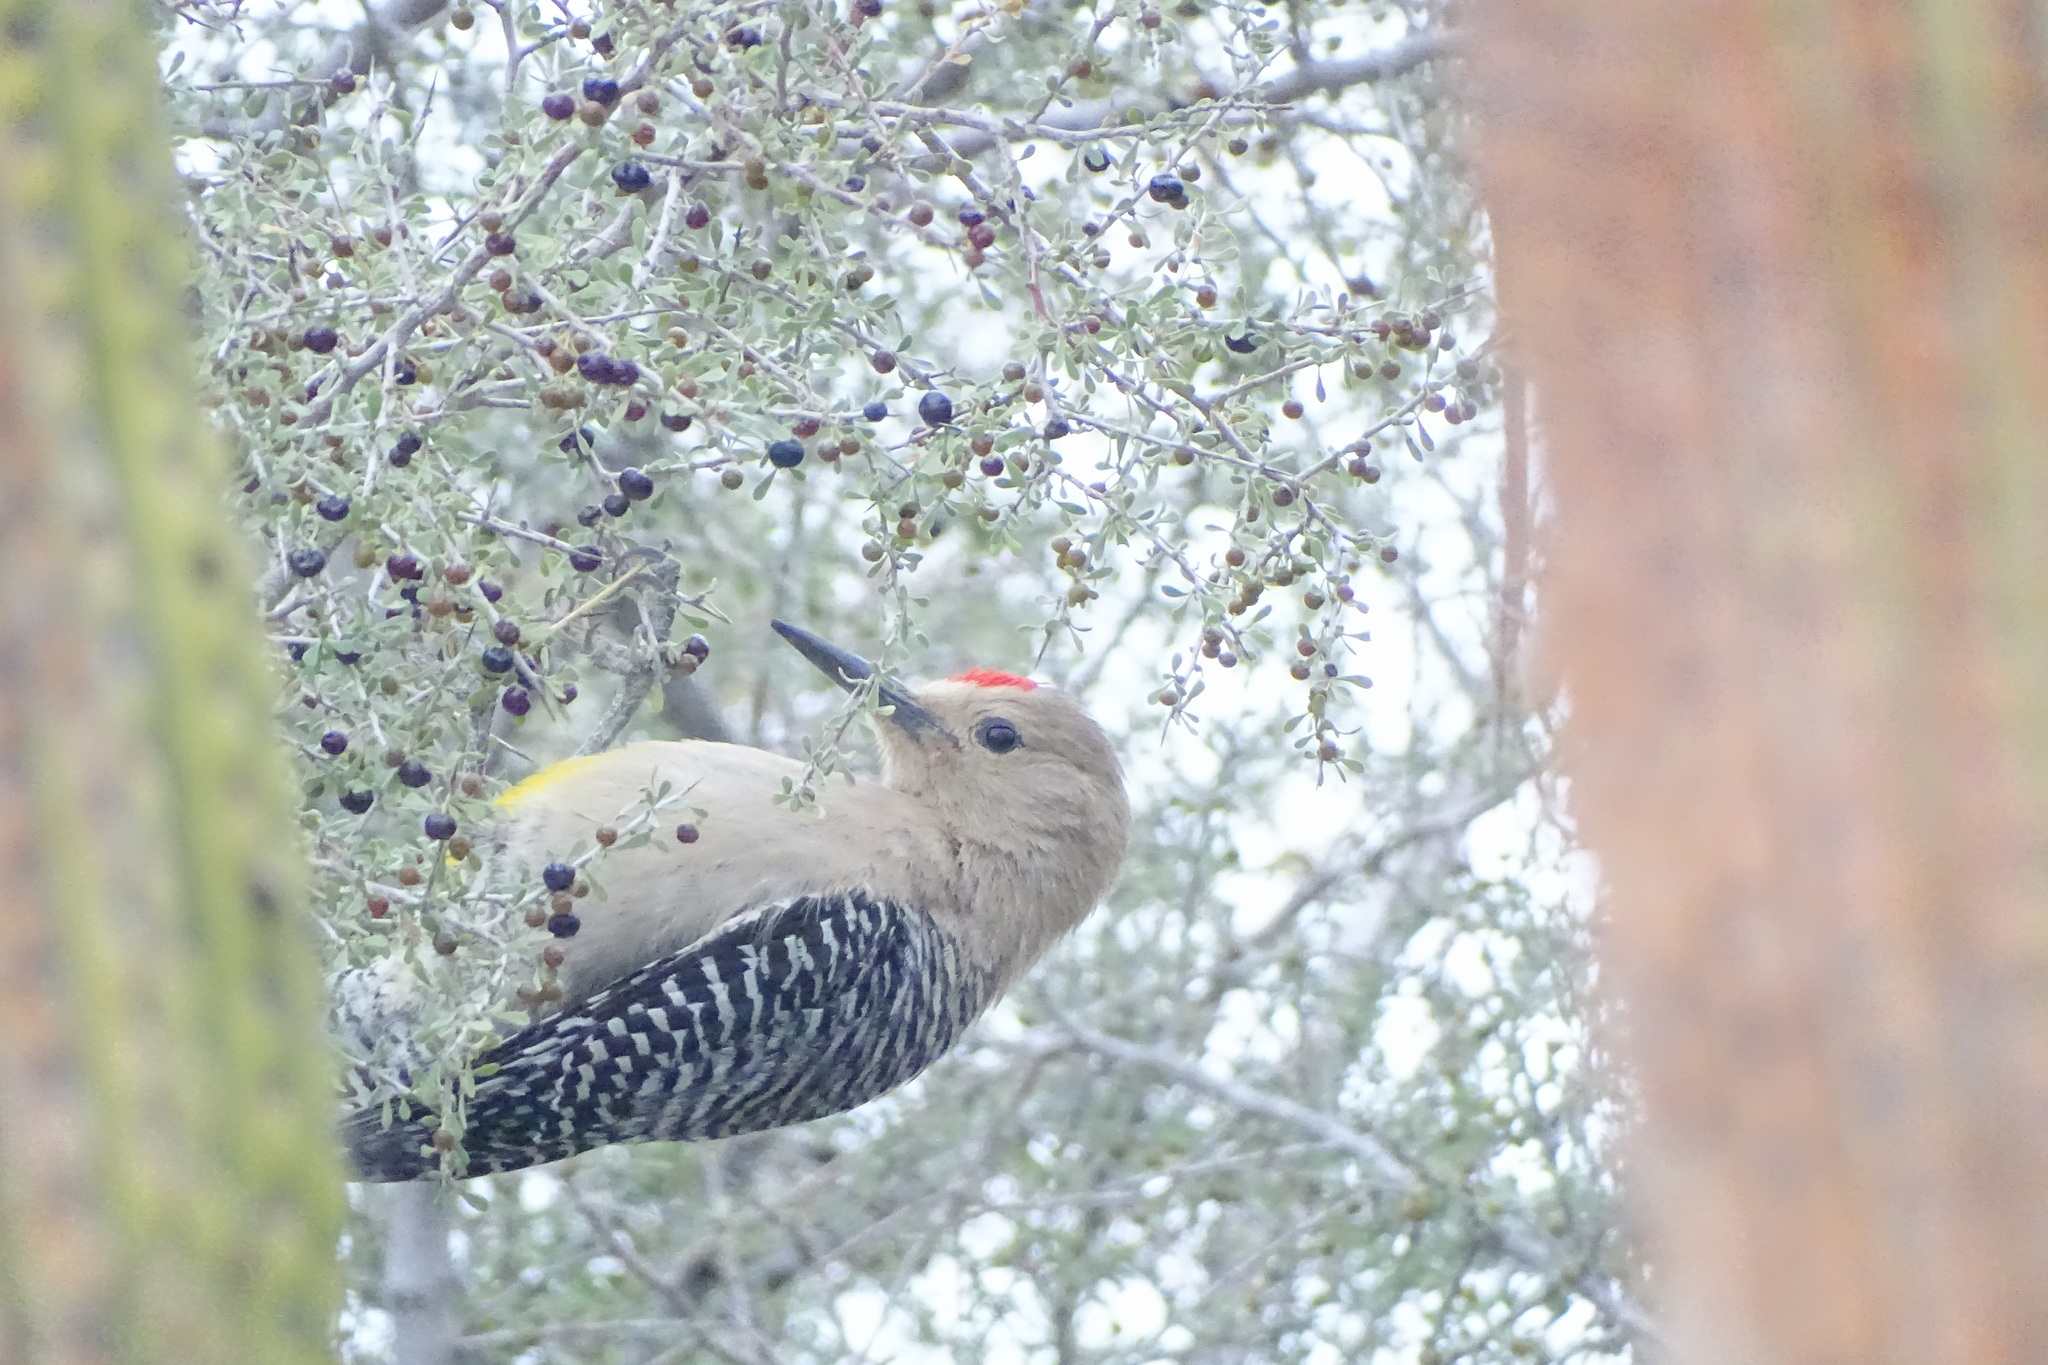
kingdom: Animalia
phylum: Chordata
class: Aves
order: Piciformes
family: Picidae
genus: Melanerpes
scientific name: Melanerpes uropygialis
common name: Gila woodpecker
